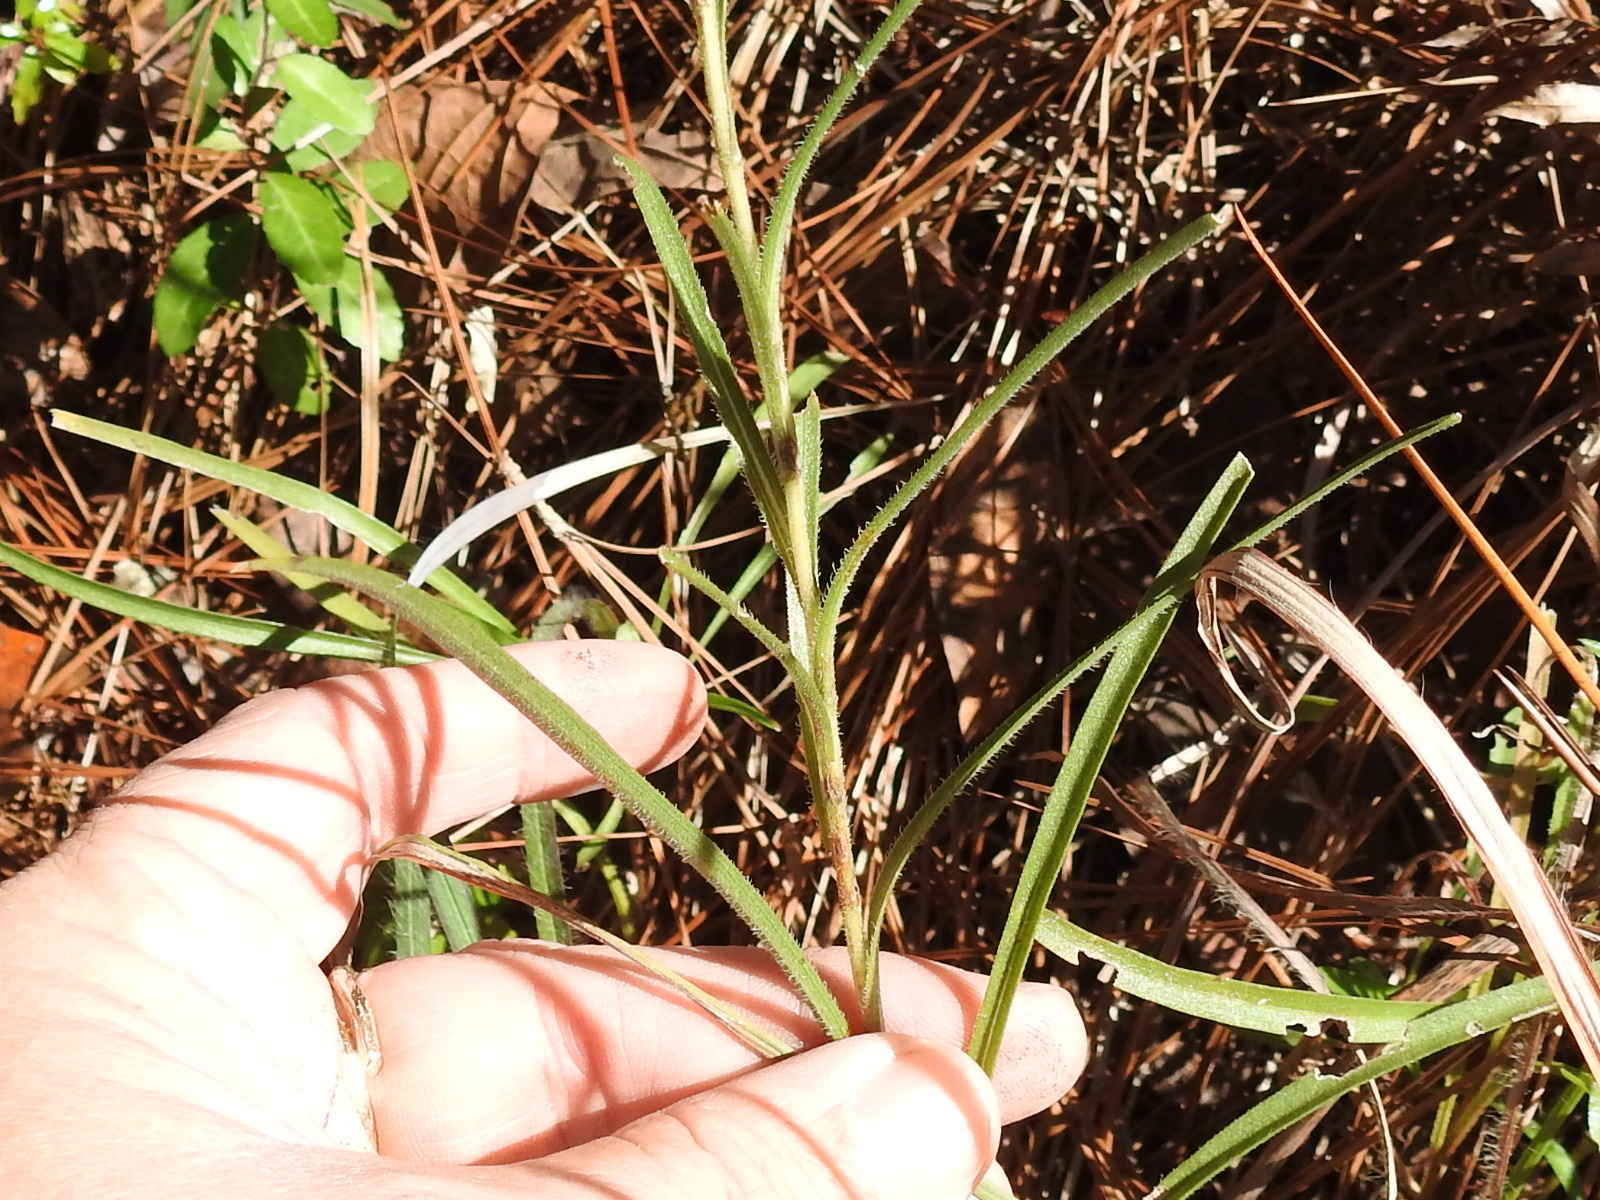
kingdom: Plantae
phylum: Tracheophyta
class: Magnoliopsida
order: Asterales
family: Asteraceae
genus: Eurybia
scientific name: Eurybia hemispherica
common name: Showy aster
